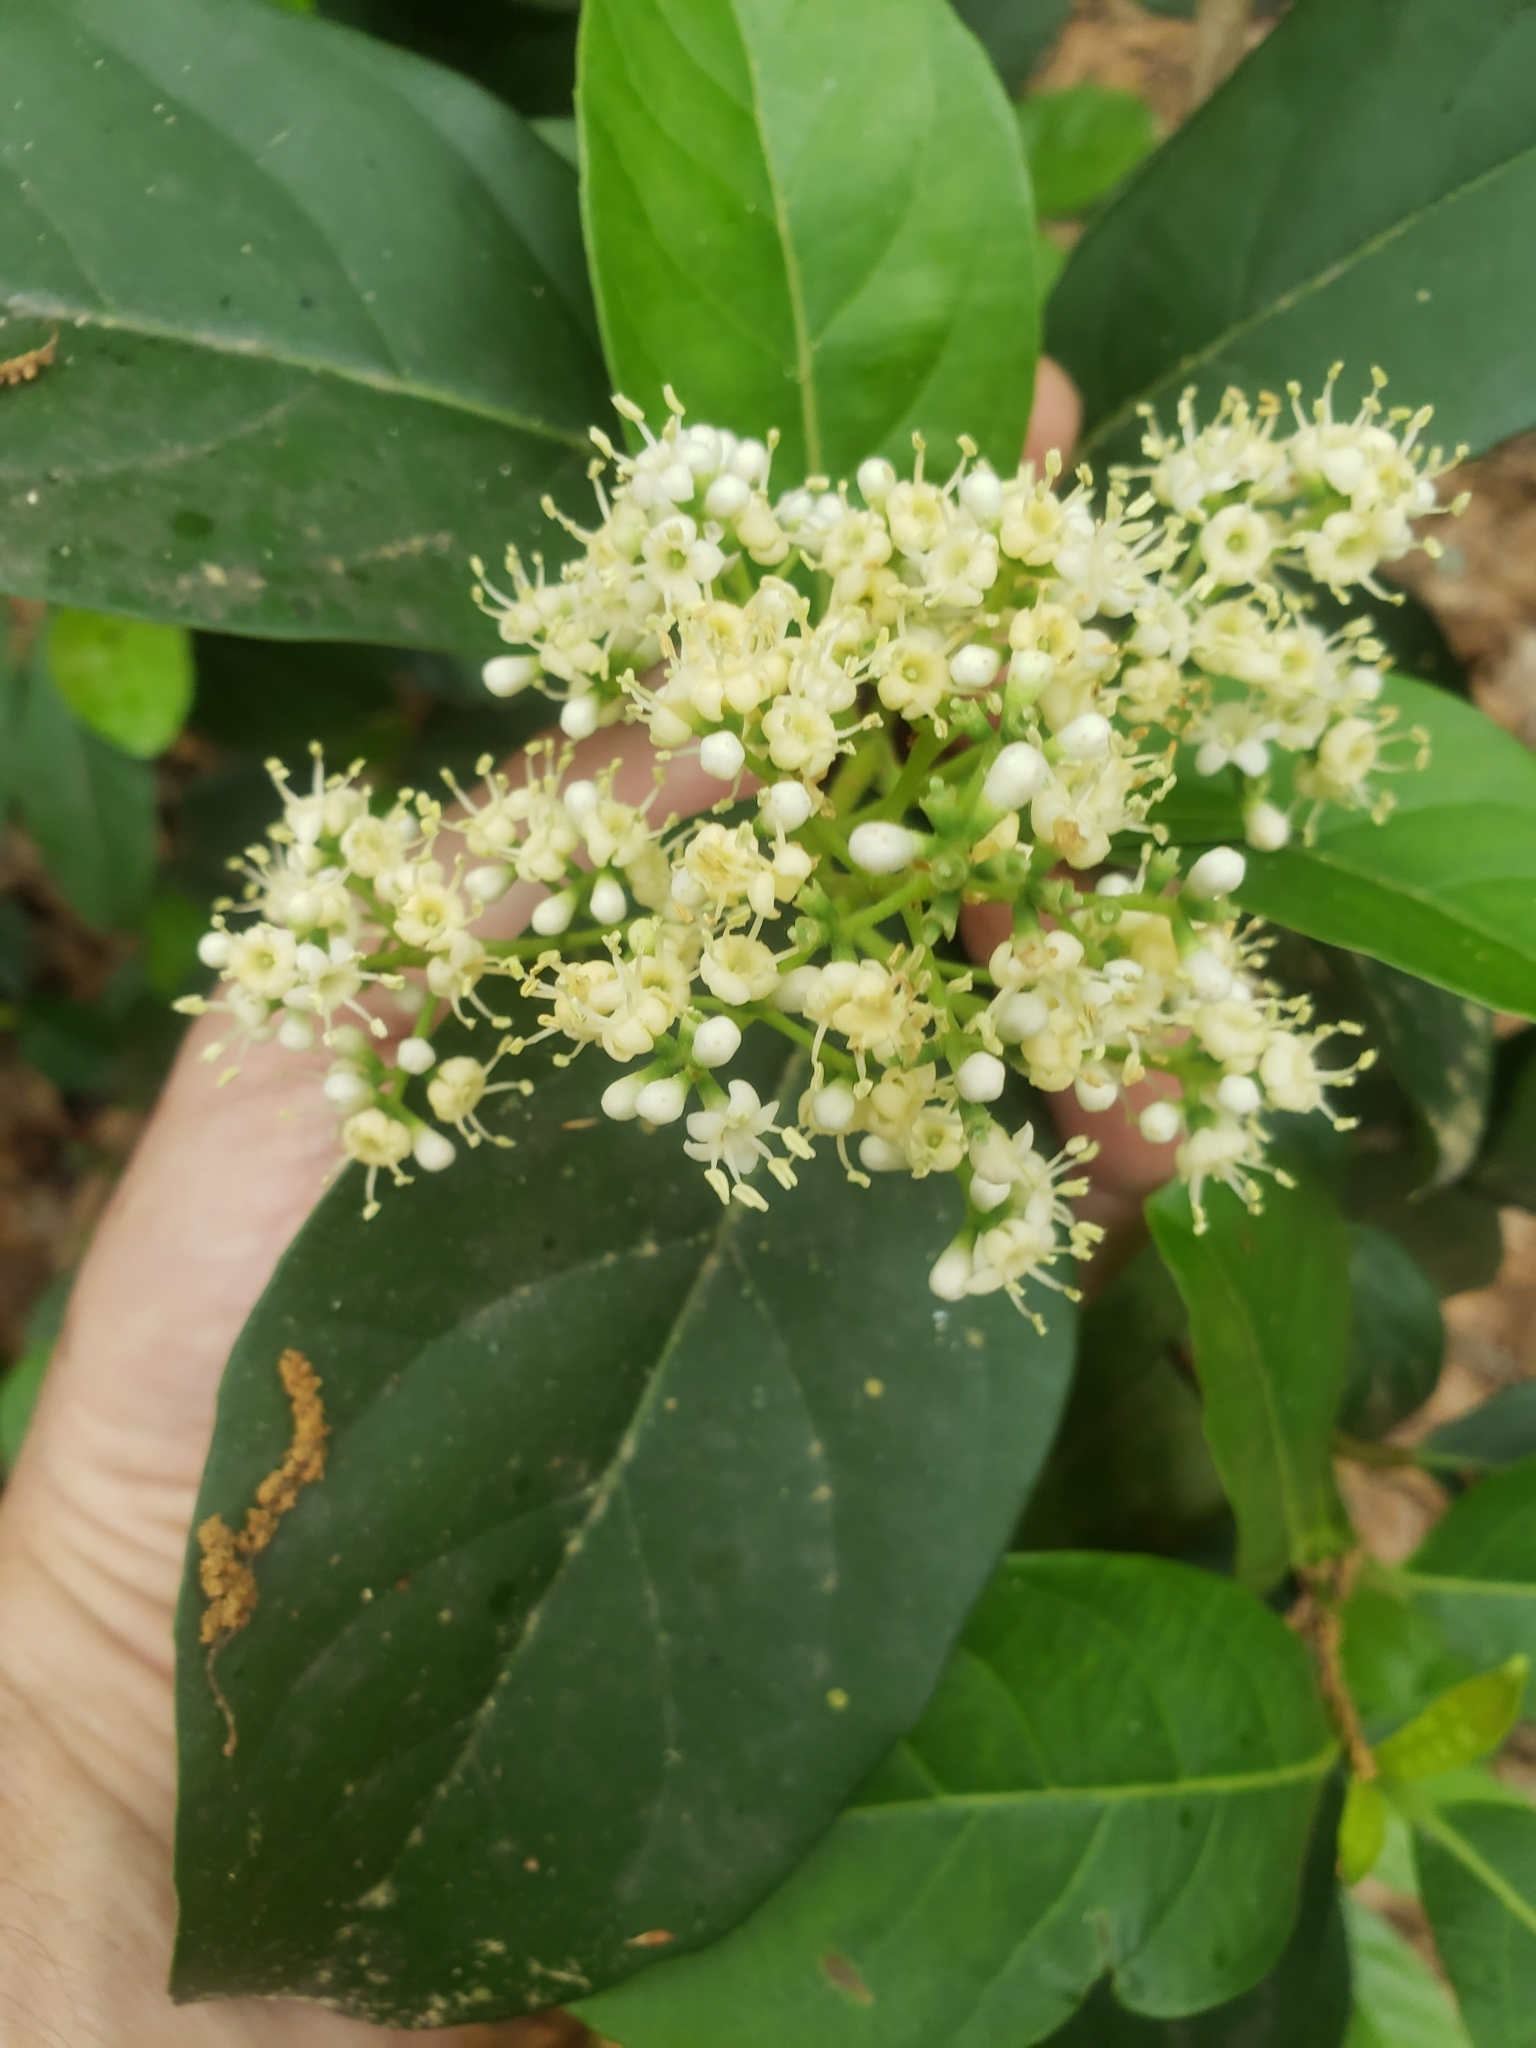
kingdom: Plantae
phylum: Tracheophyta
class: Magnoliopsida
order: Dipsacales
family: Viburnaceae
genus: Viburnum
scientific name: Viburnum odoratissimum
